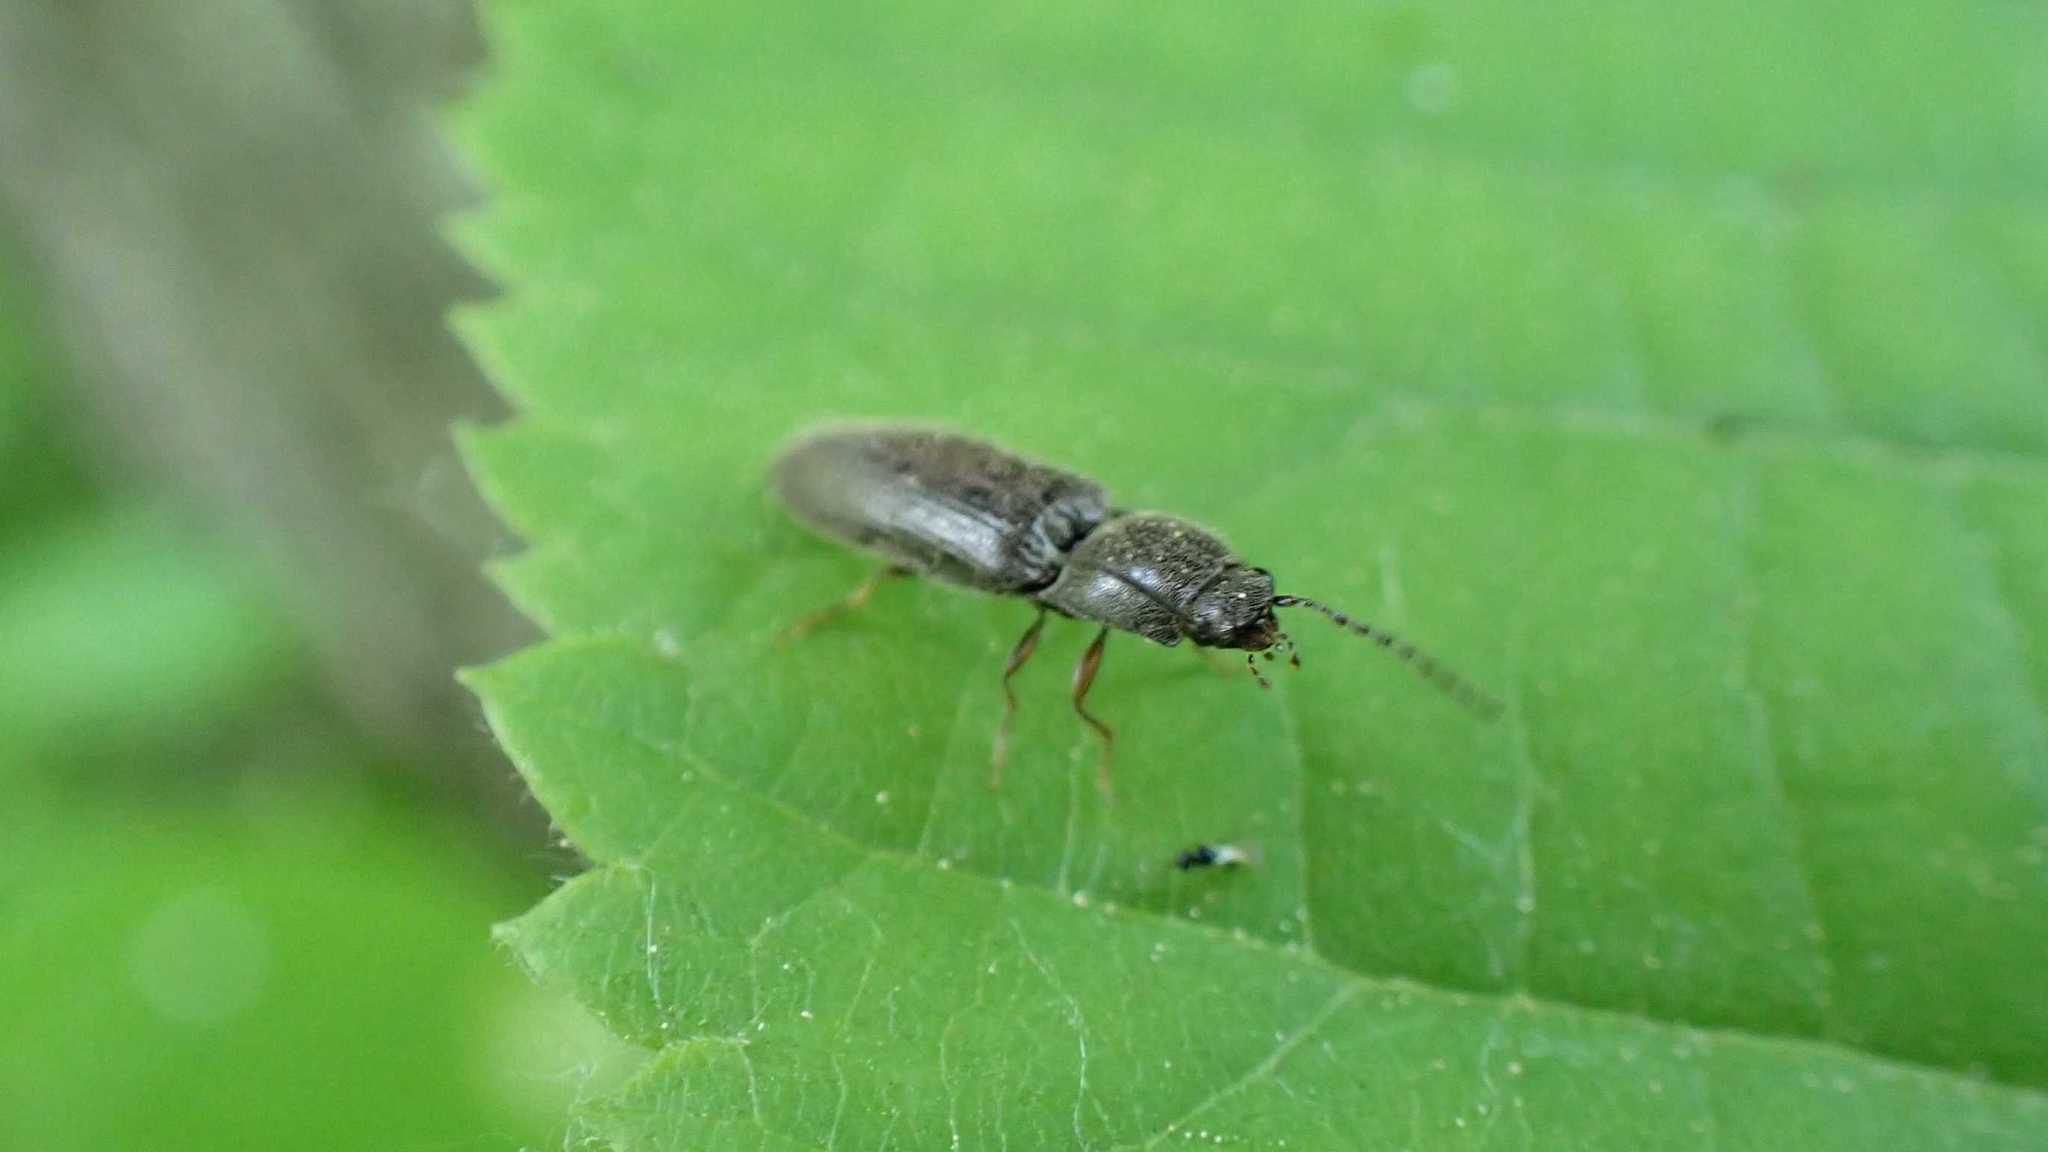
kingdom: Animalia
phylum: Arthropoda
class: Insecta
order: Coleoptera
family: Elateridae
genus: Athous
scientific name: Athous haemorrhoidalis
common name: Red-brown click beetle
